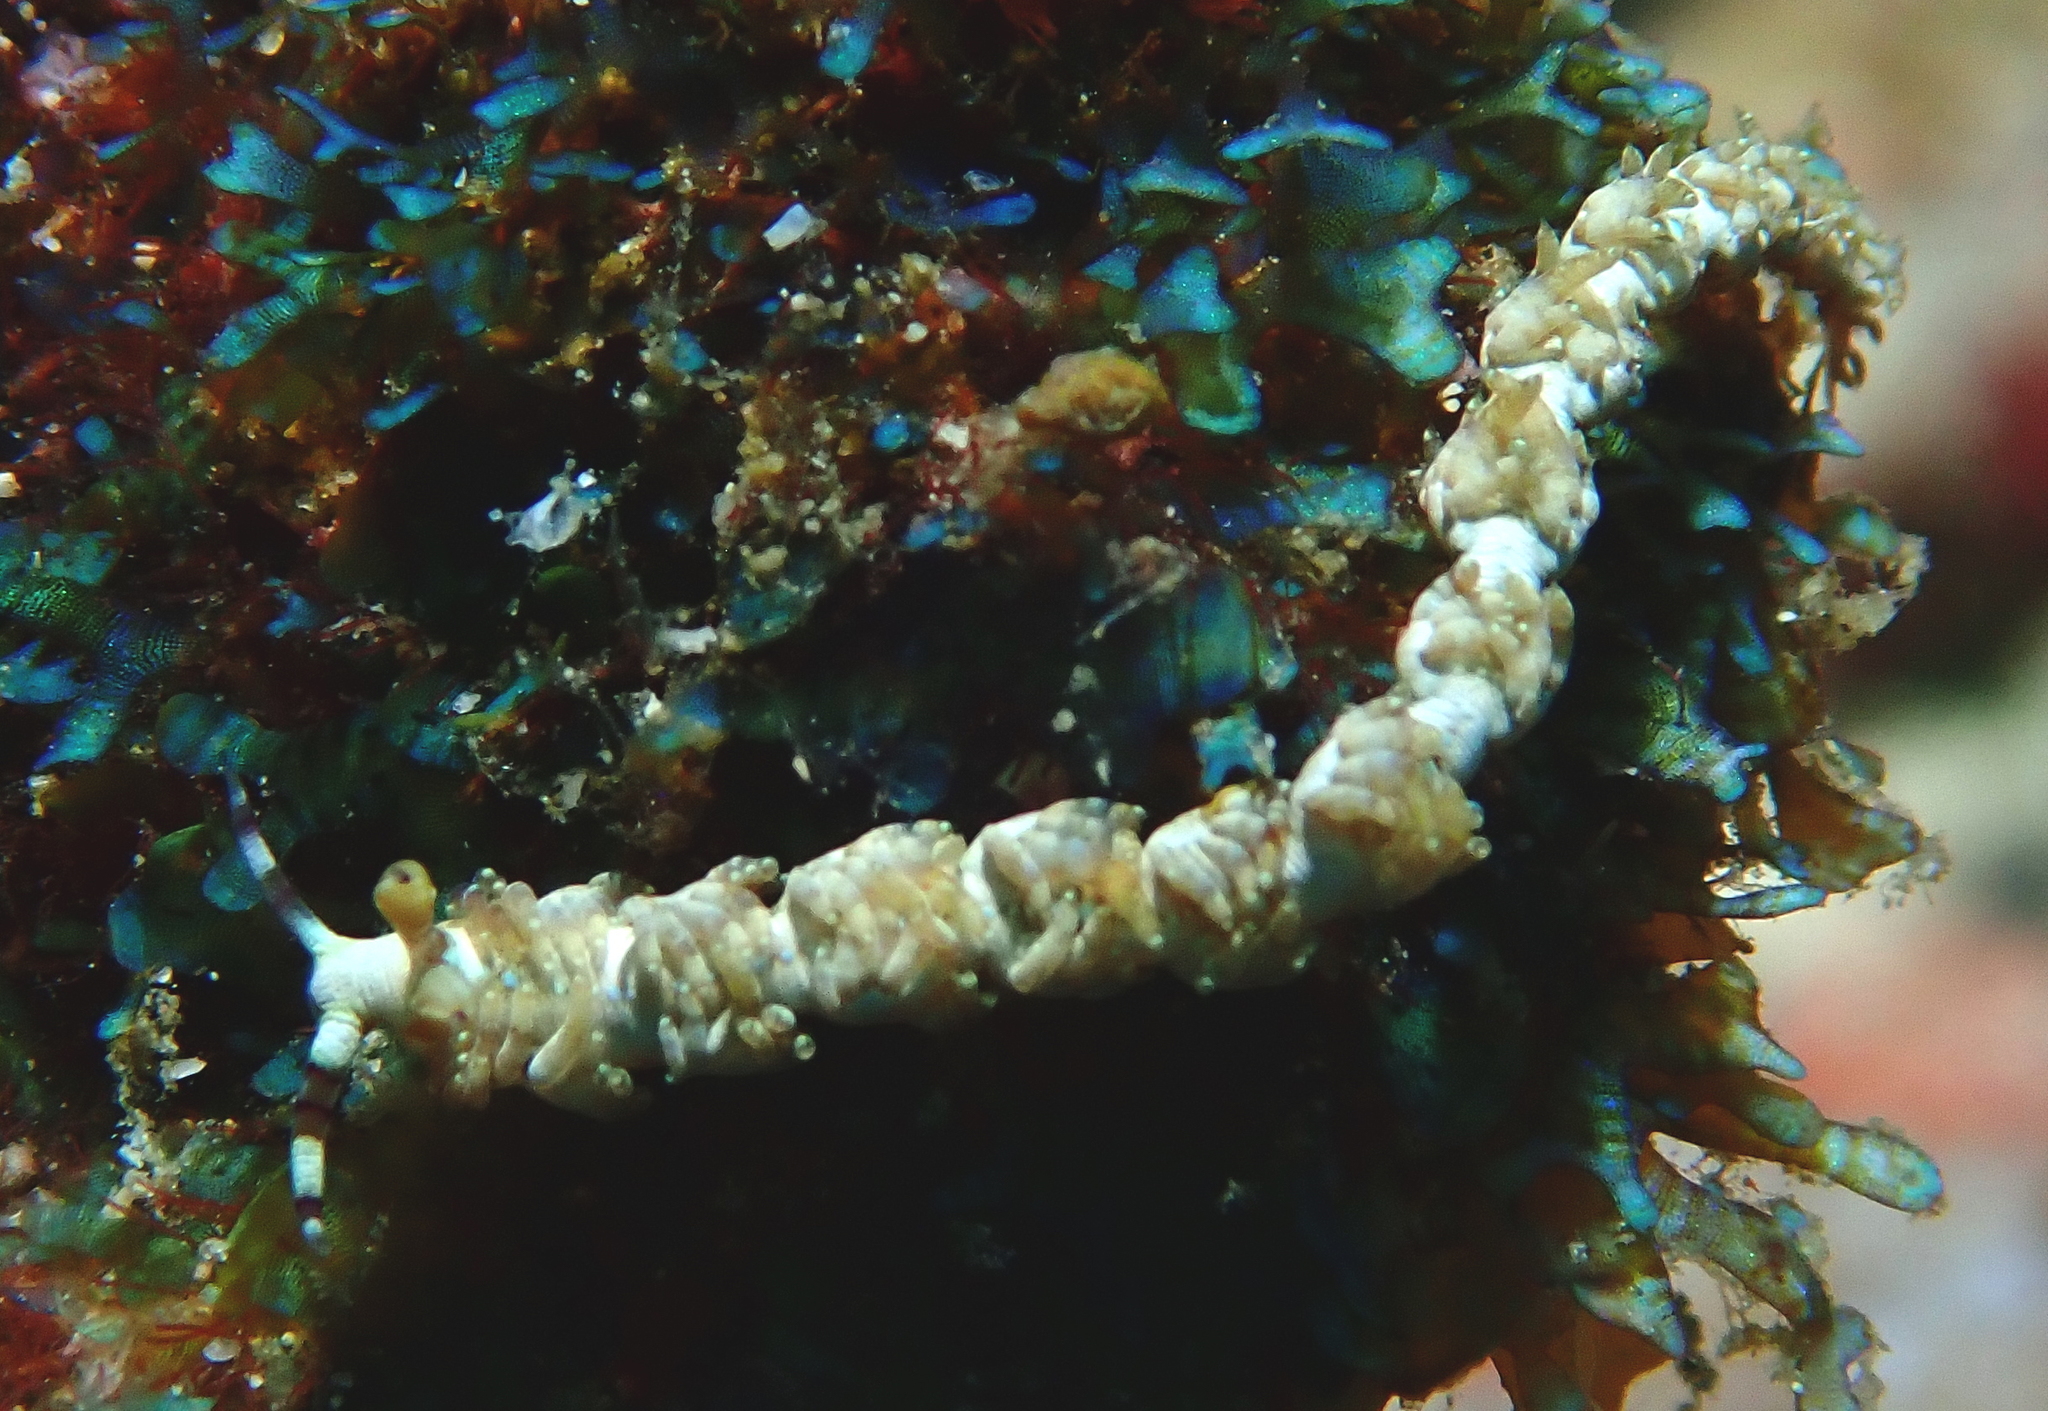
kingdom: Animalia
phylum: Mollusca
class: Gastropoda
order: Nudibranchia
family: Facelinidae
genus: Pteraeolidia
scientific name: Pteraeolidia semperi
